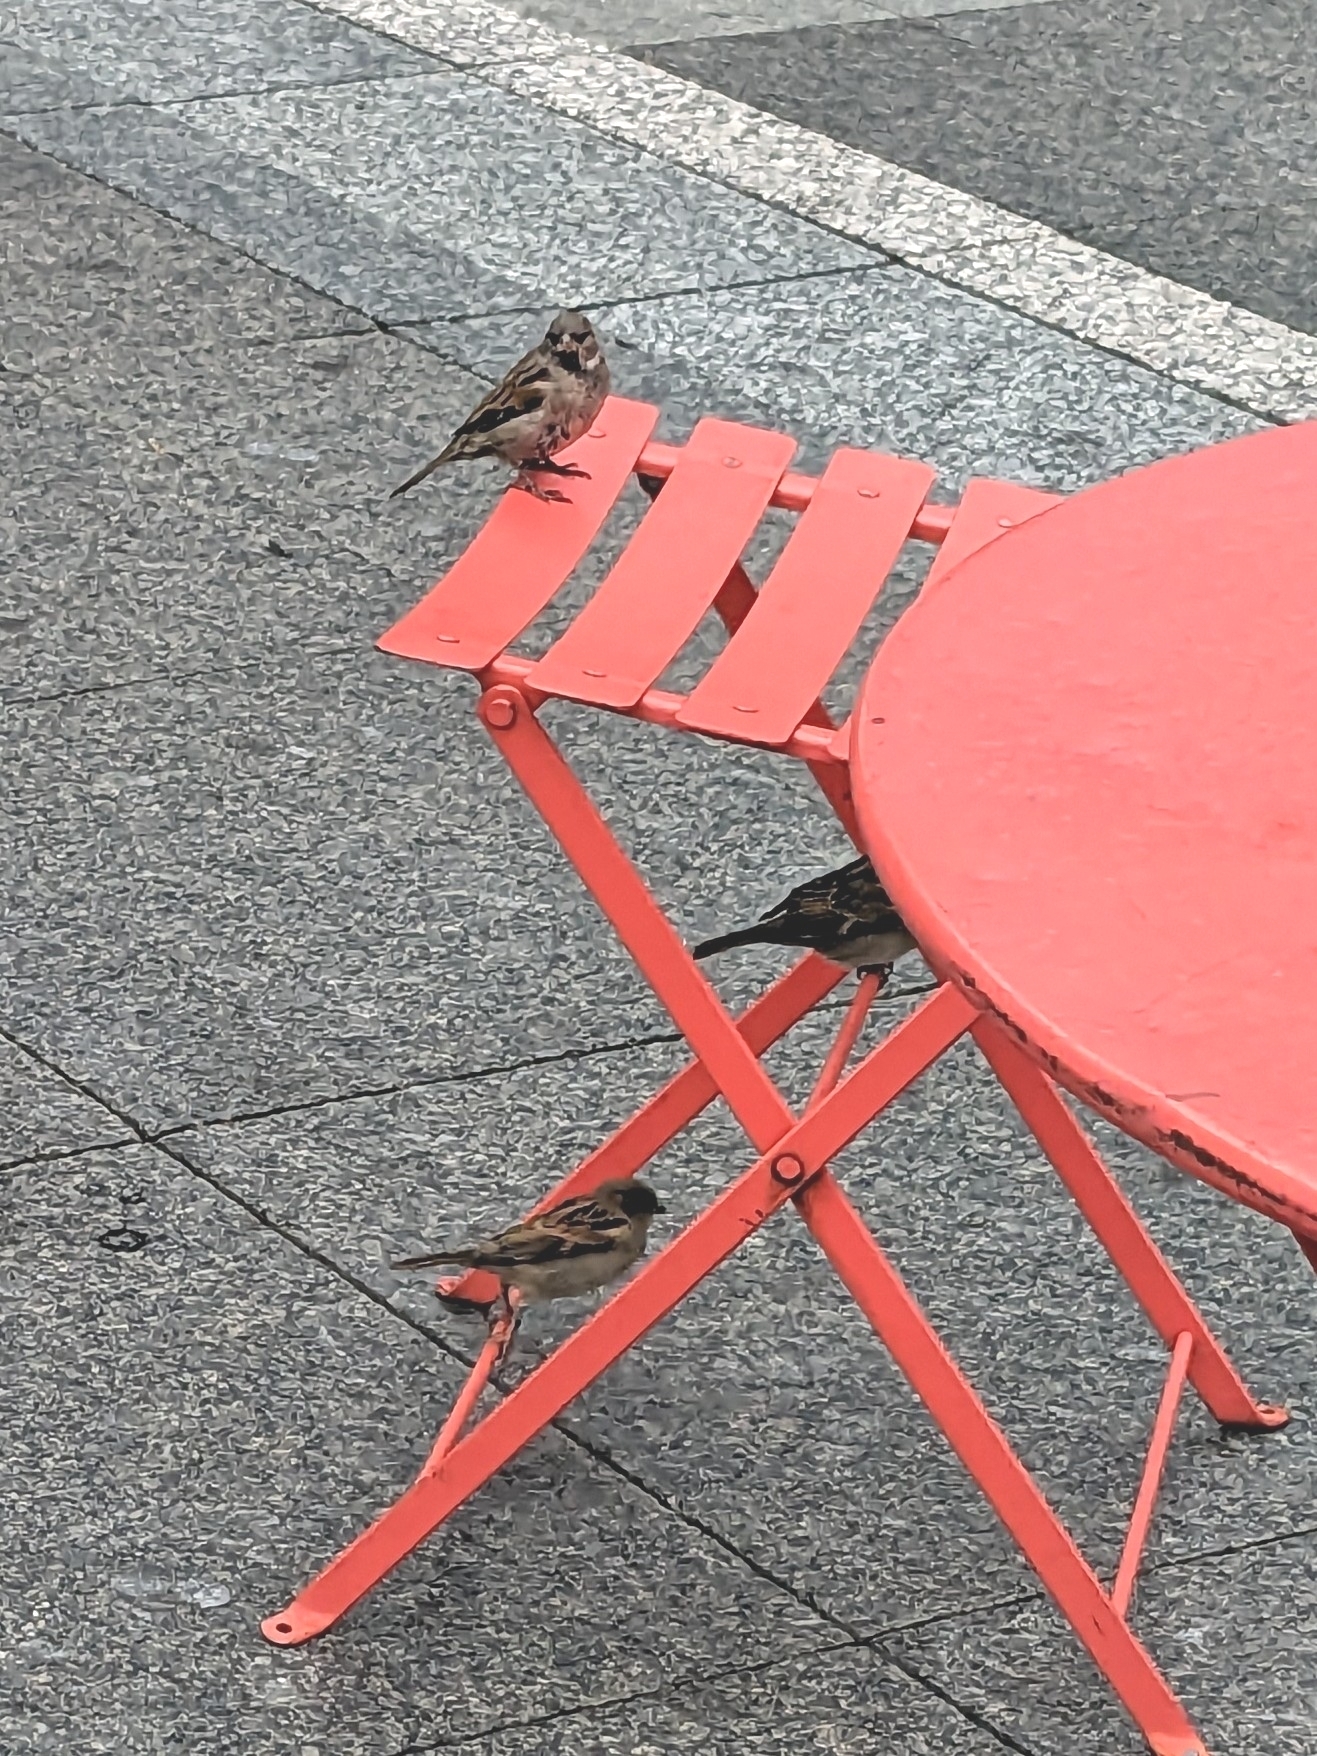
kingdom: Animalia
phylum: Chordata
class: Aves
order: Passeriformes
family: Passeridae
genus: Passer
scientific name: Passer domesticus
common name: House sparrow
